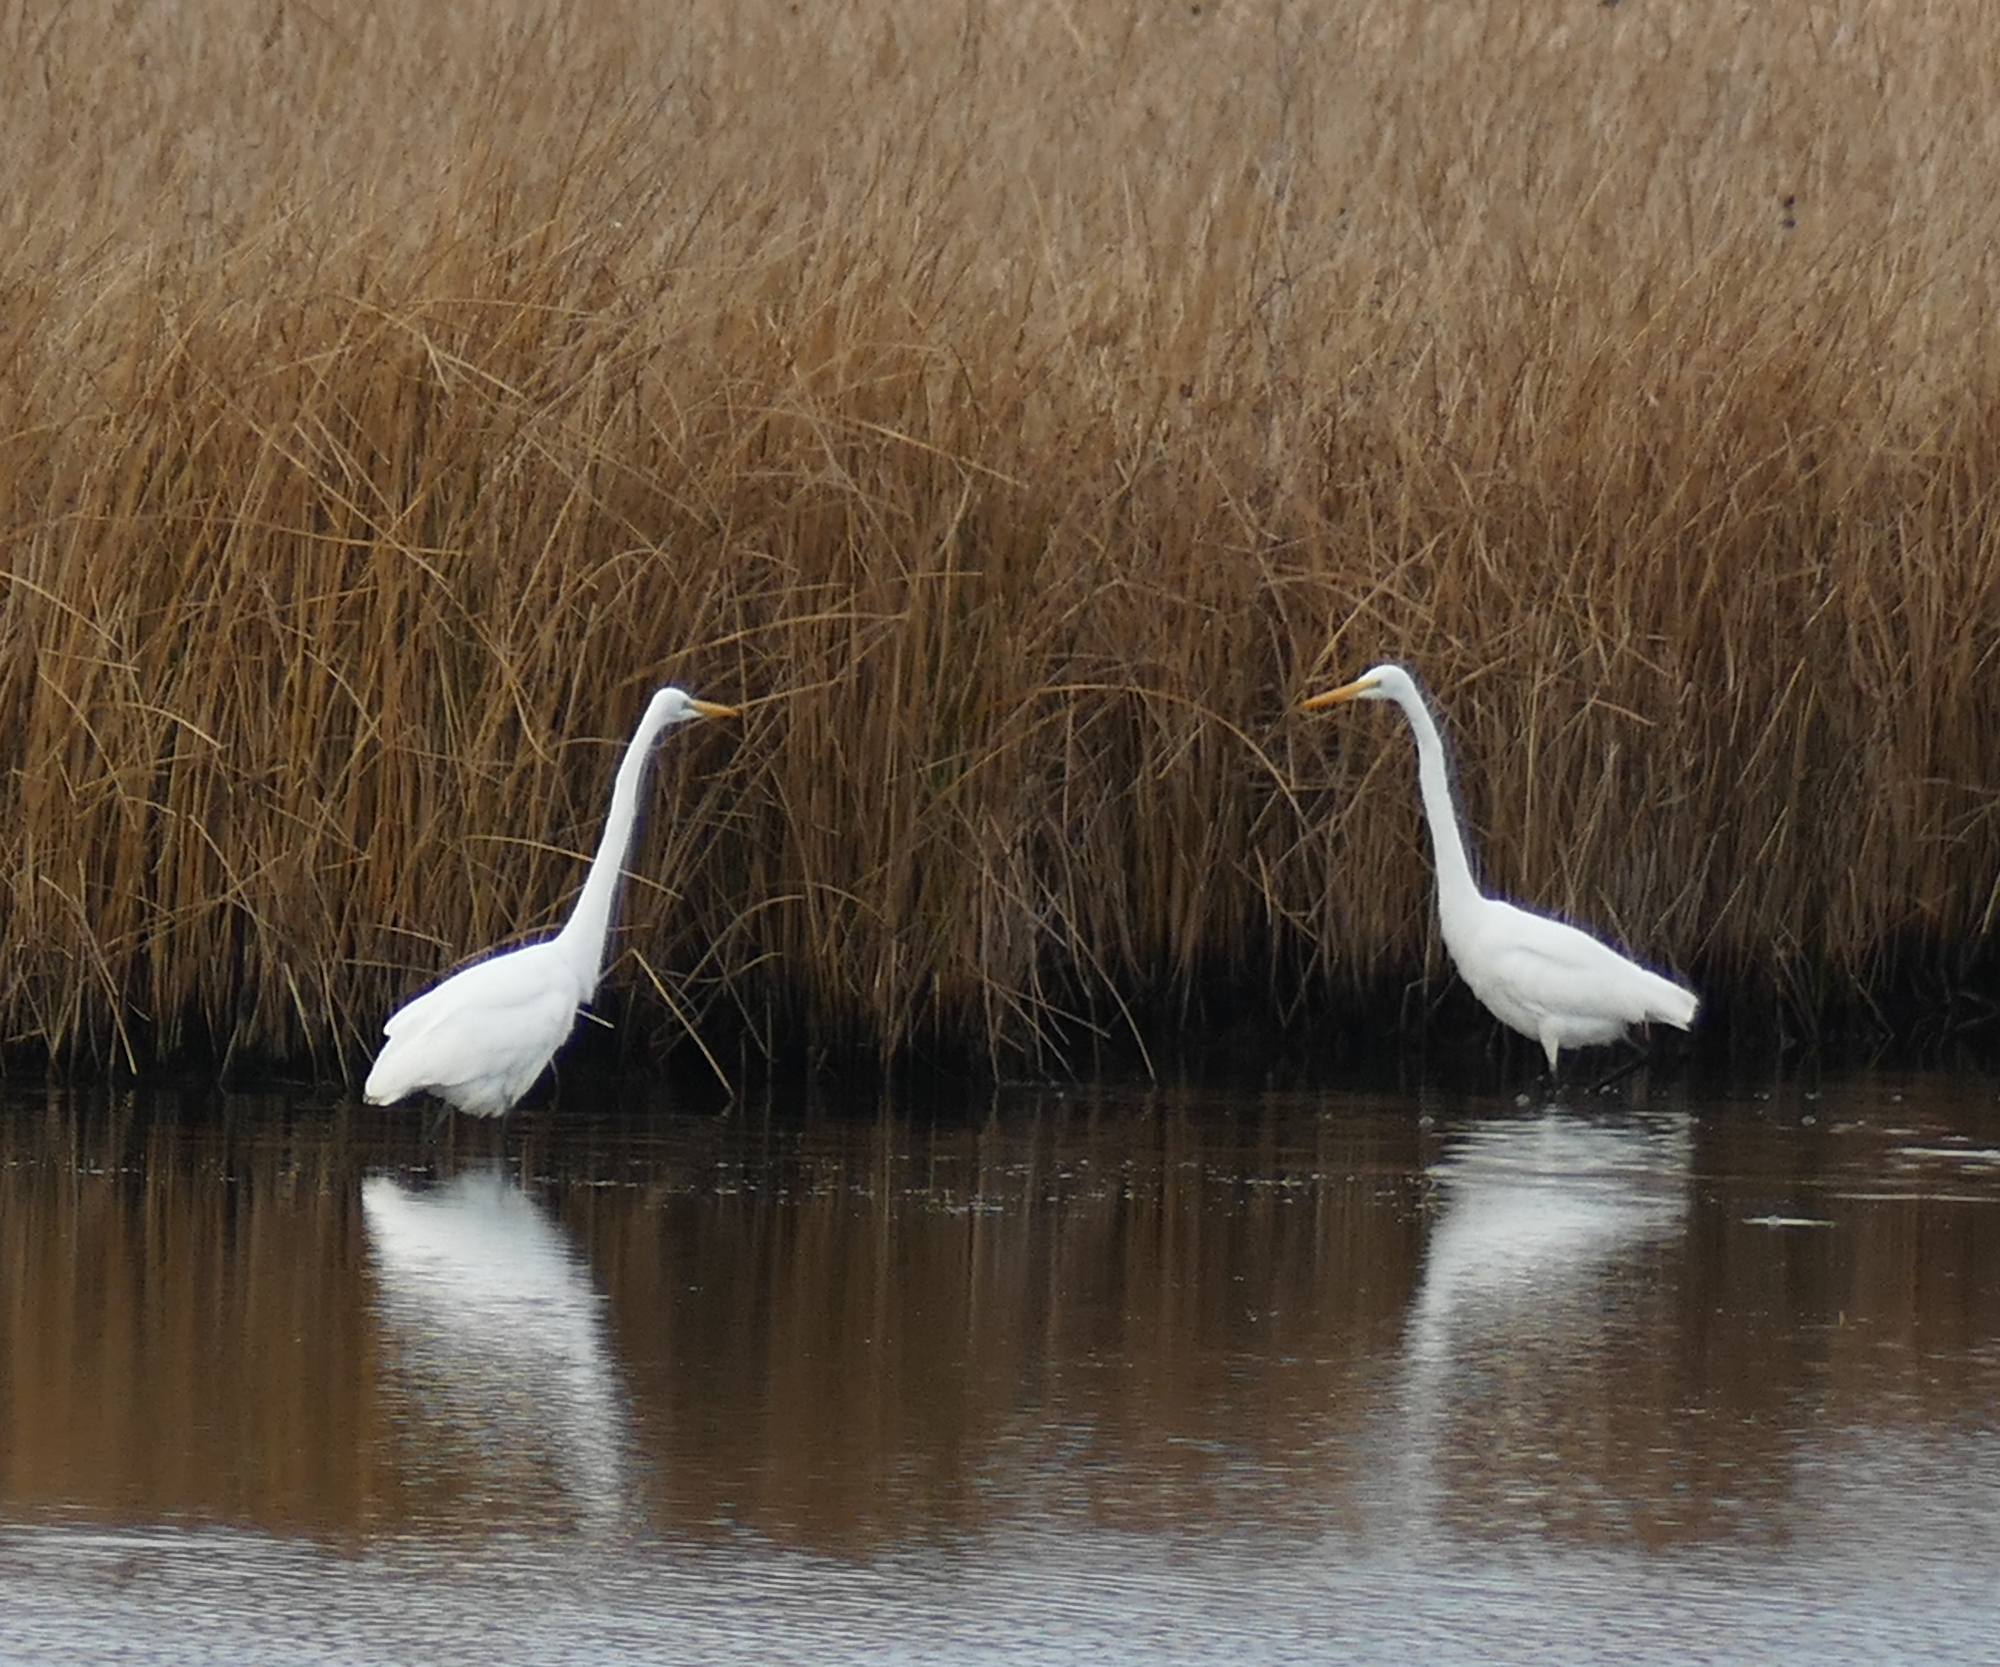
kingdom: Animalia
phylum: Chordata
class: Aves
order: Pelecaniformes
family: Ardeidae
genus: Ardea
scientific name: Ardea alba
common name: Great egret
